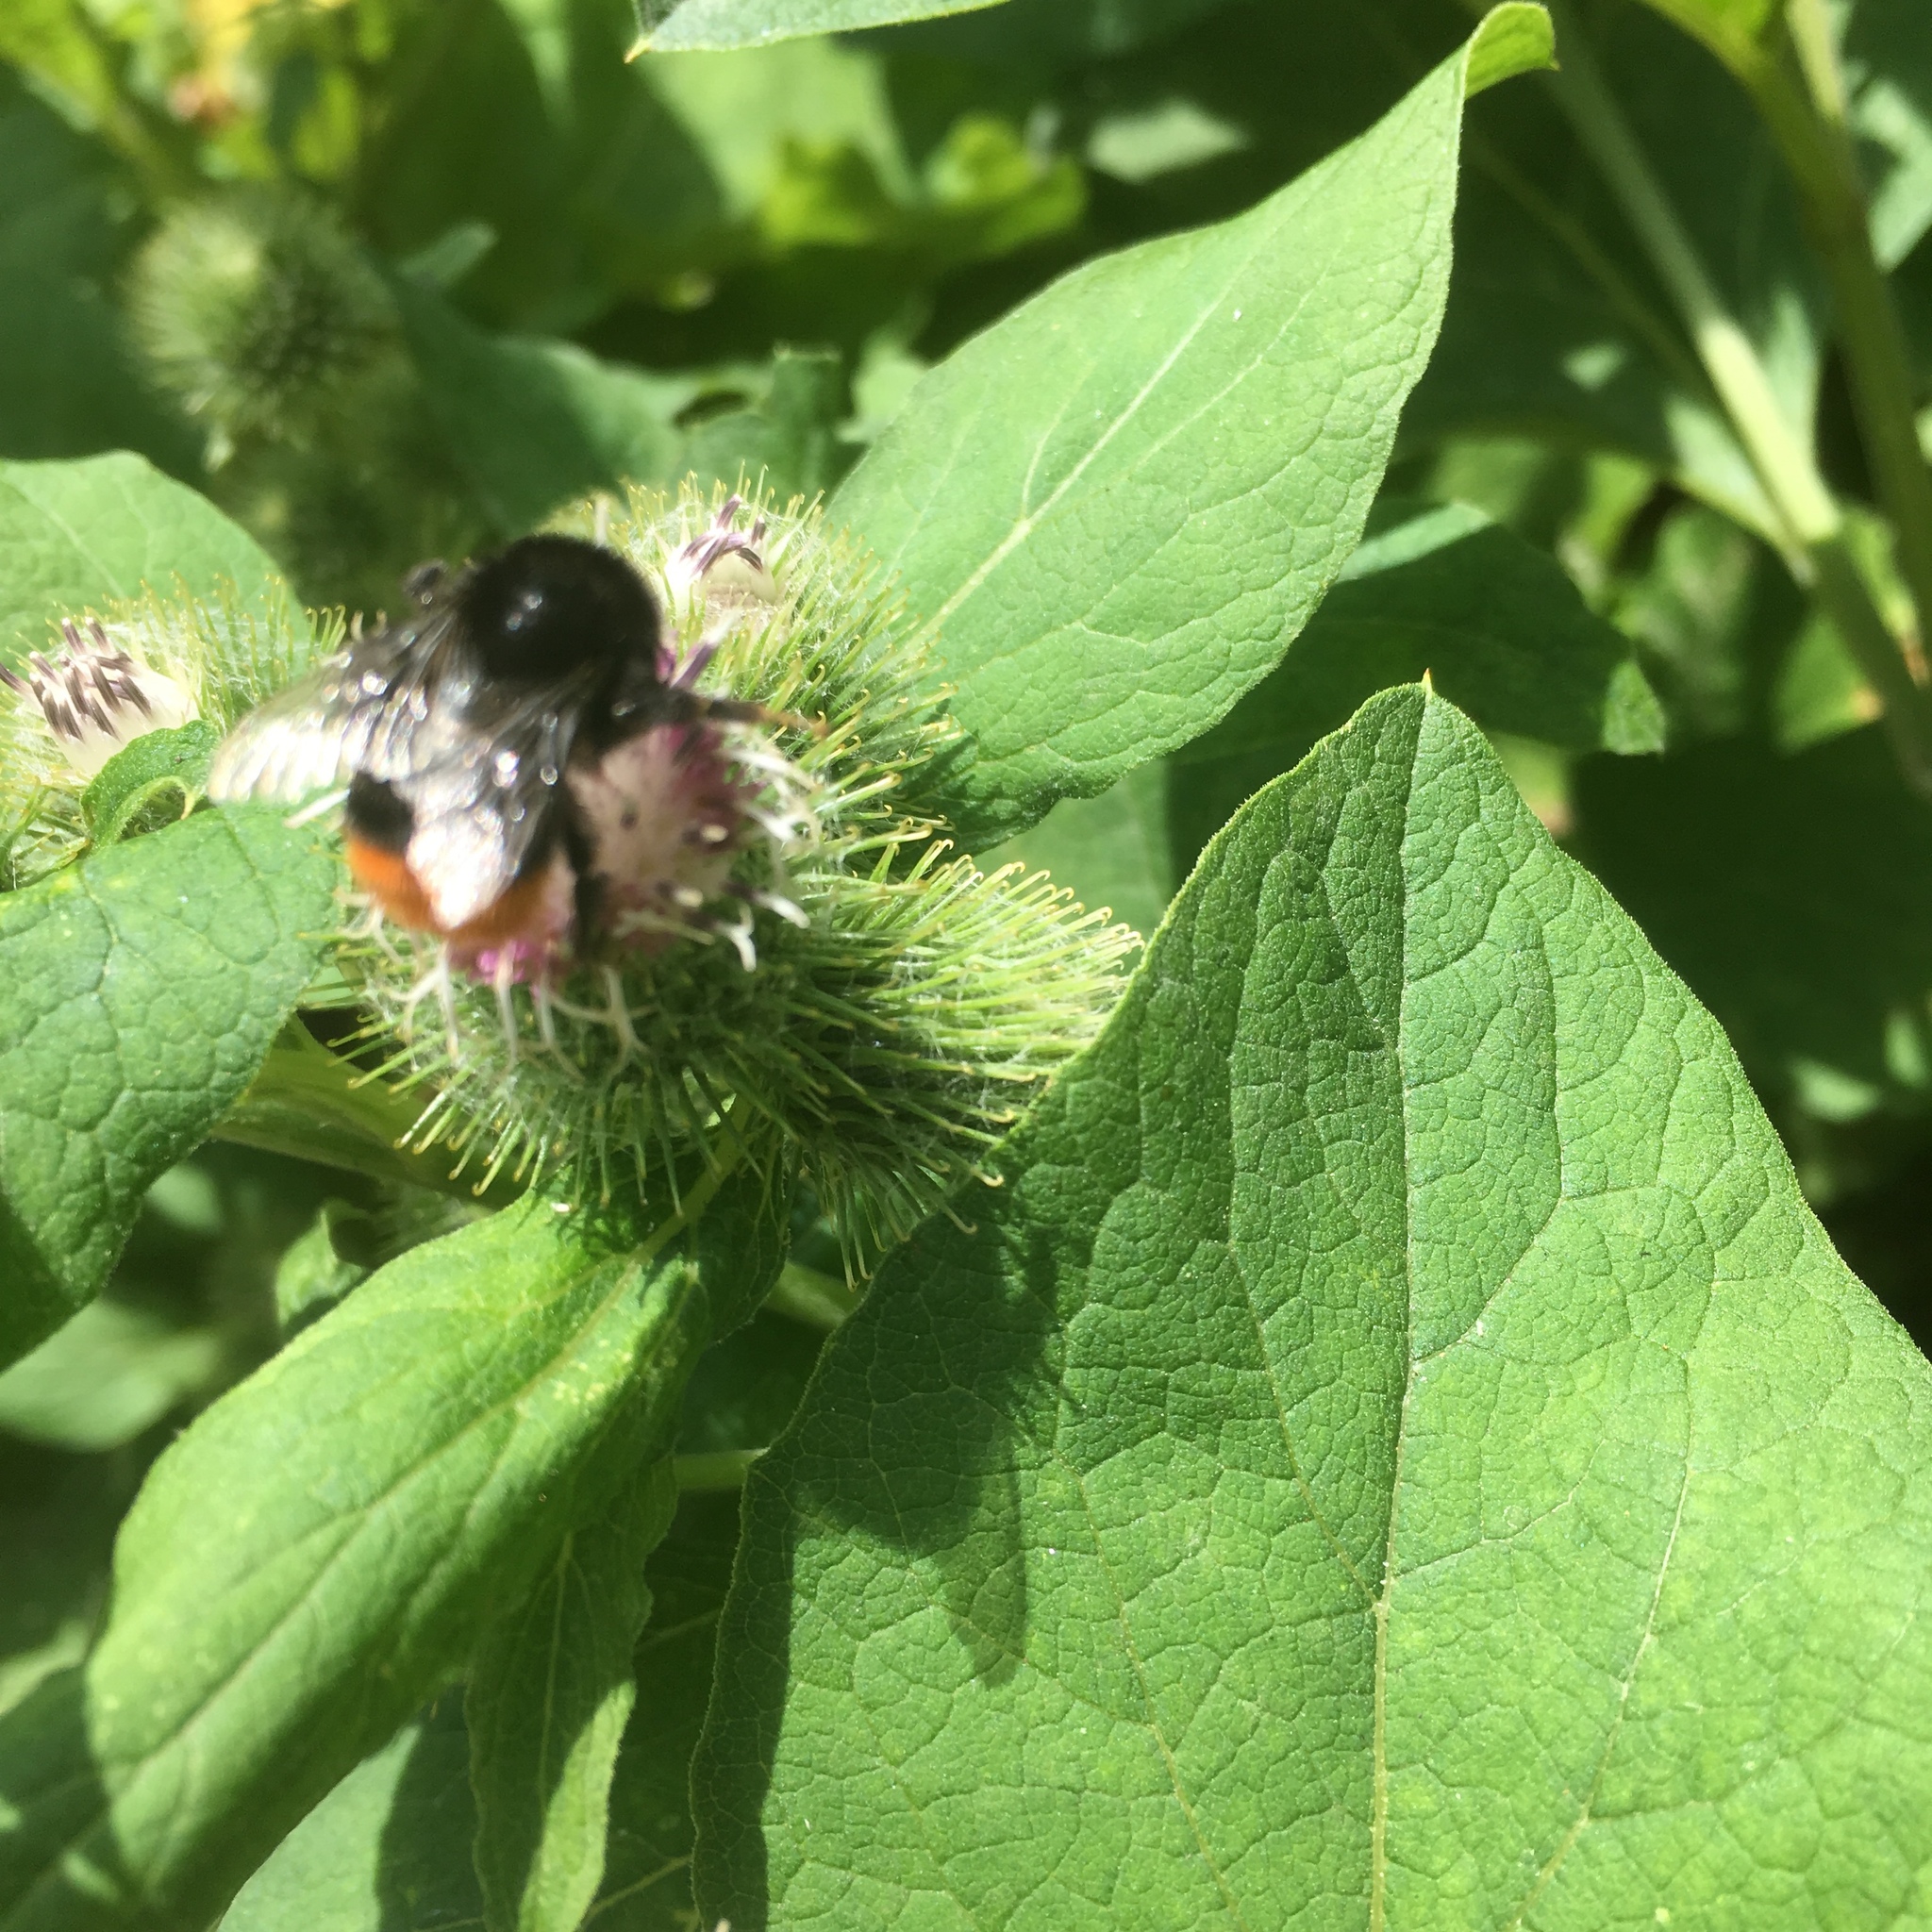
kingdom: Animalia
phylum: Arthropoda
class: Insecta
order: Hymenoptera
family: Apidae
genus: Bombus
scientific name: Bombus lapidarius
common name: Large red-tailed humble-bee
